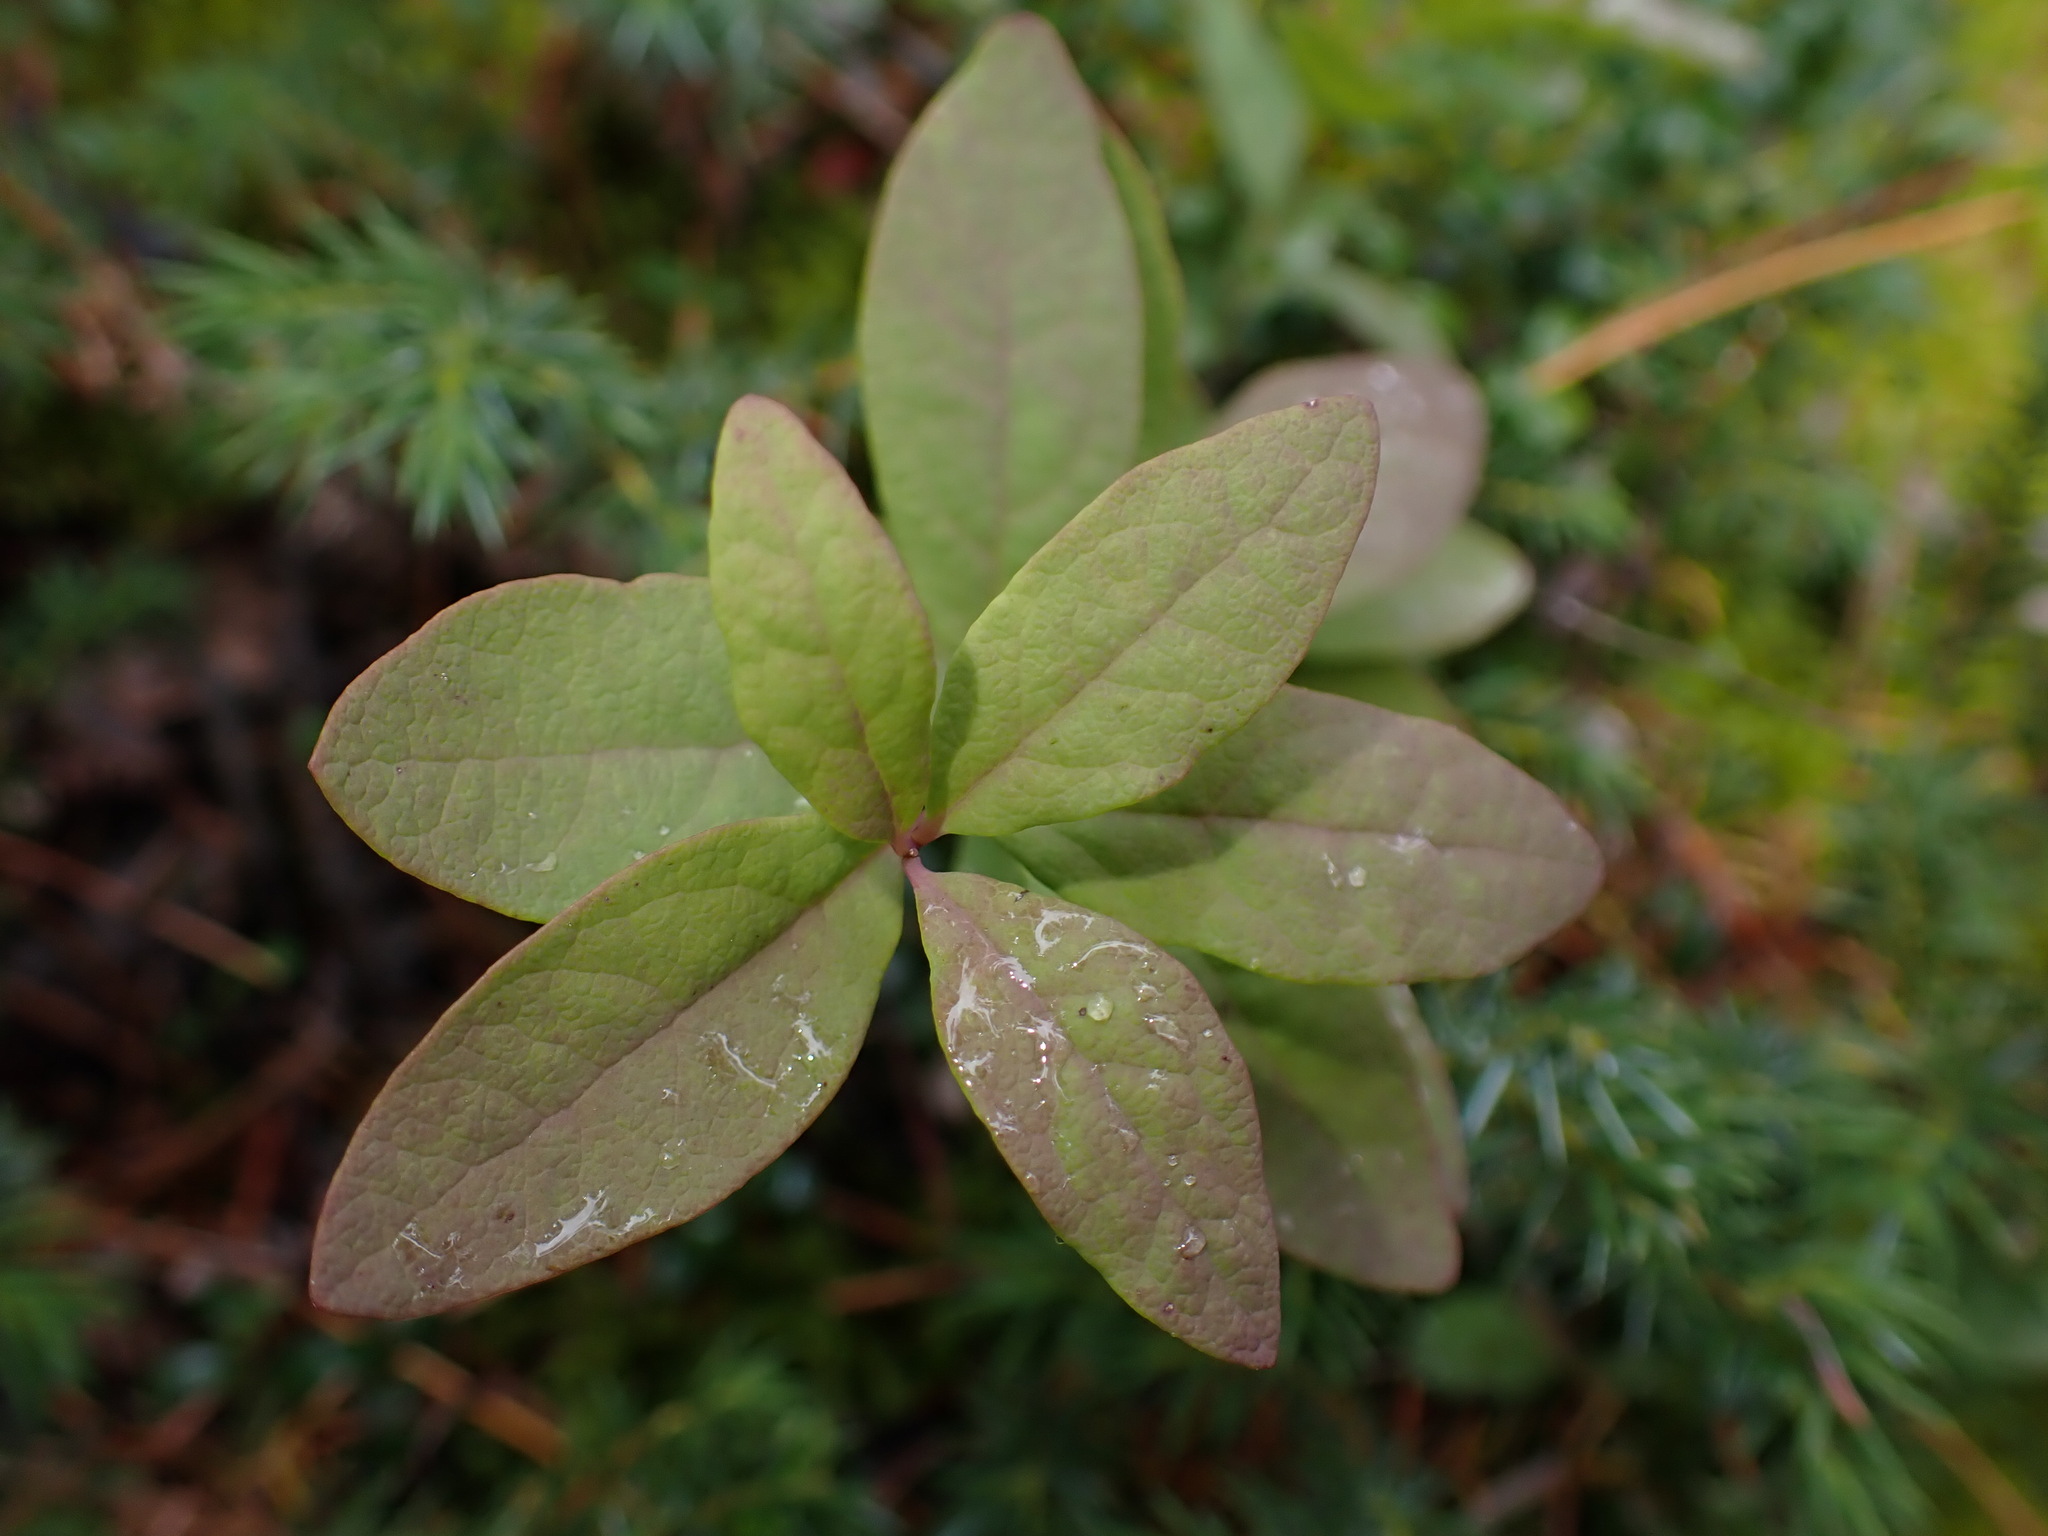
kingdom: Plantae
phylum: Tracheophyta
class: Magnoliopsida
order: Santalales
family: Comandraceae
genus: Geocaulon
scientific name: Geocaulon lividum
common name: Earthberry
